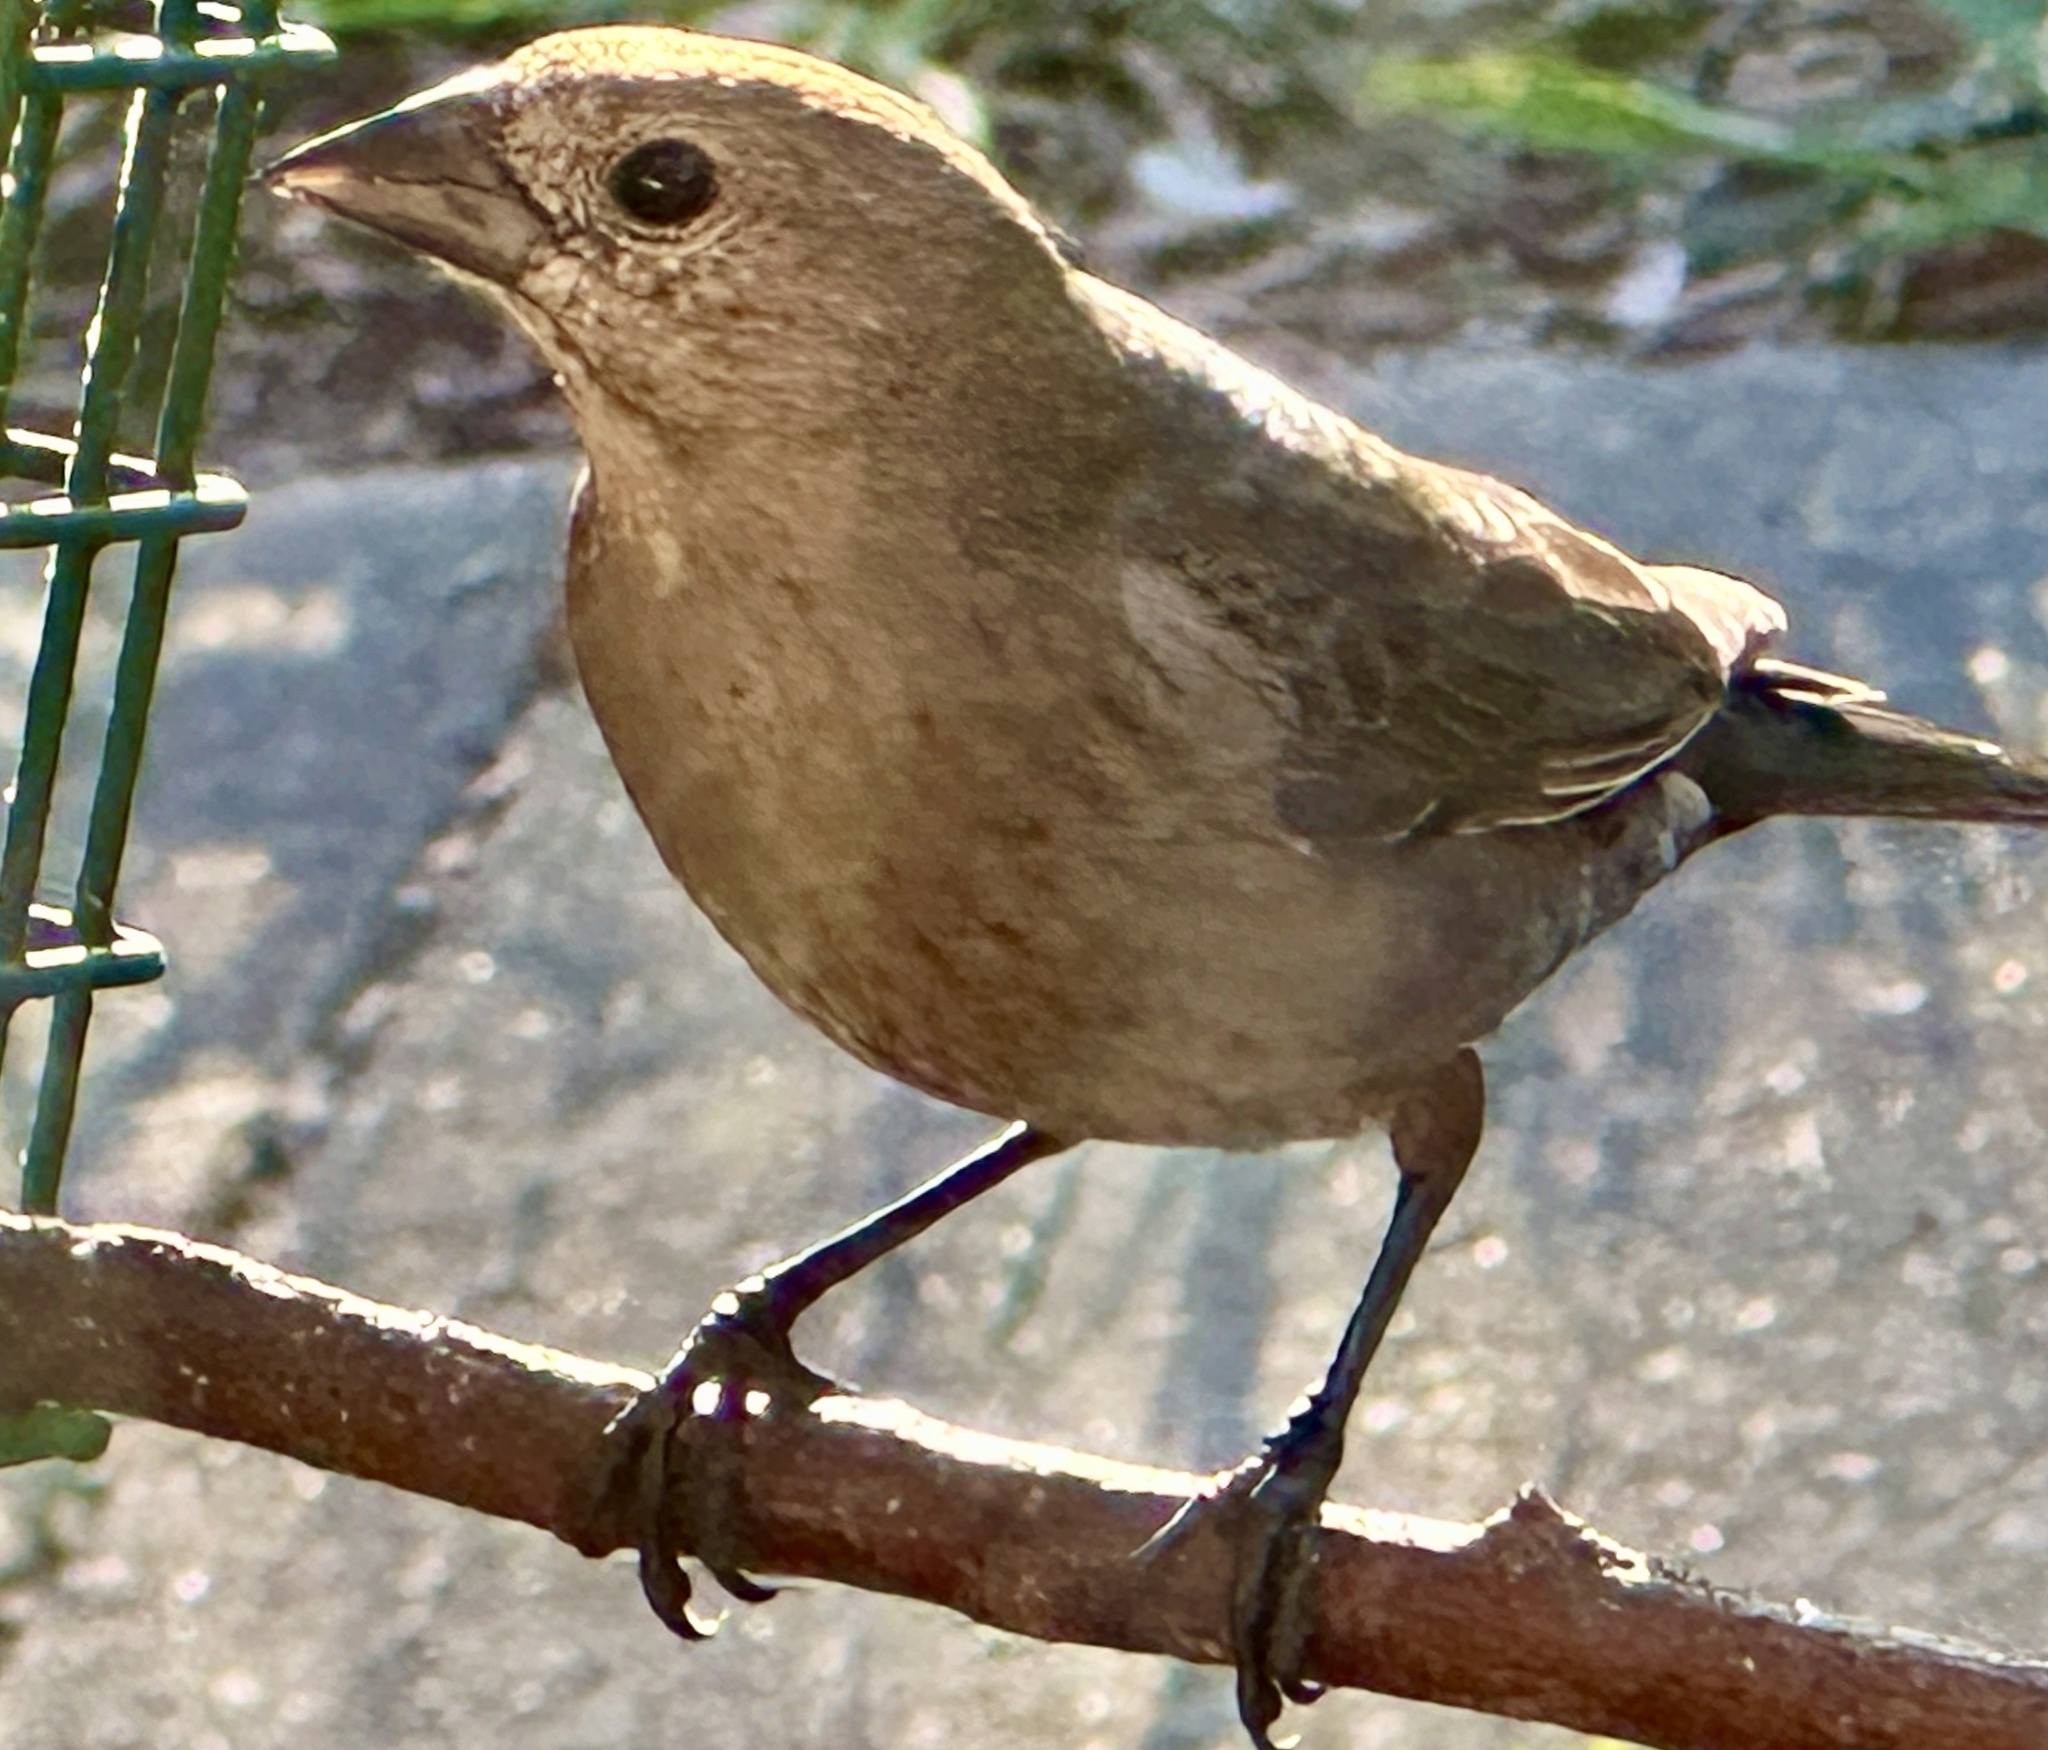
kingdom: Animalia
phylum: Chordata
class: Aves
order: Passeriformes
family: Icteridae
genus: Molothrus
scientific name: Molothrus ater
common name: Brown-headed cowbird
